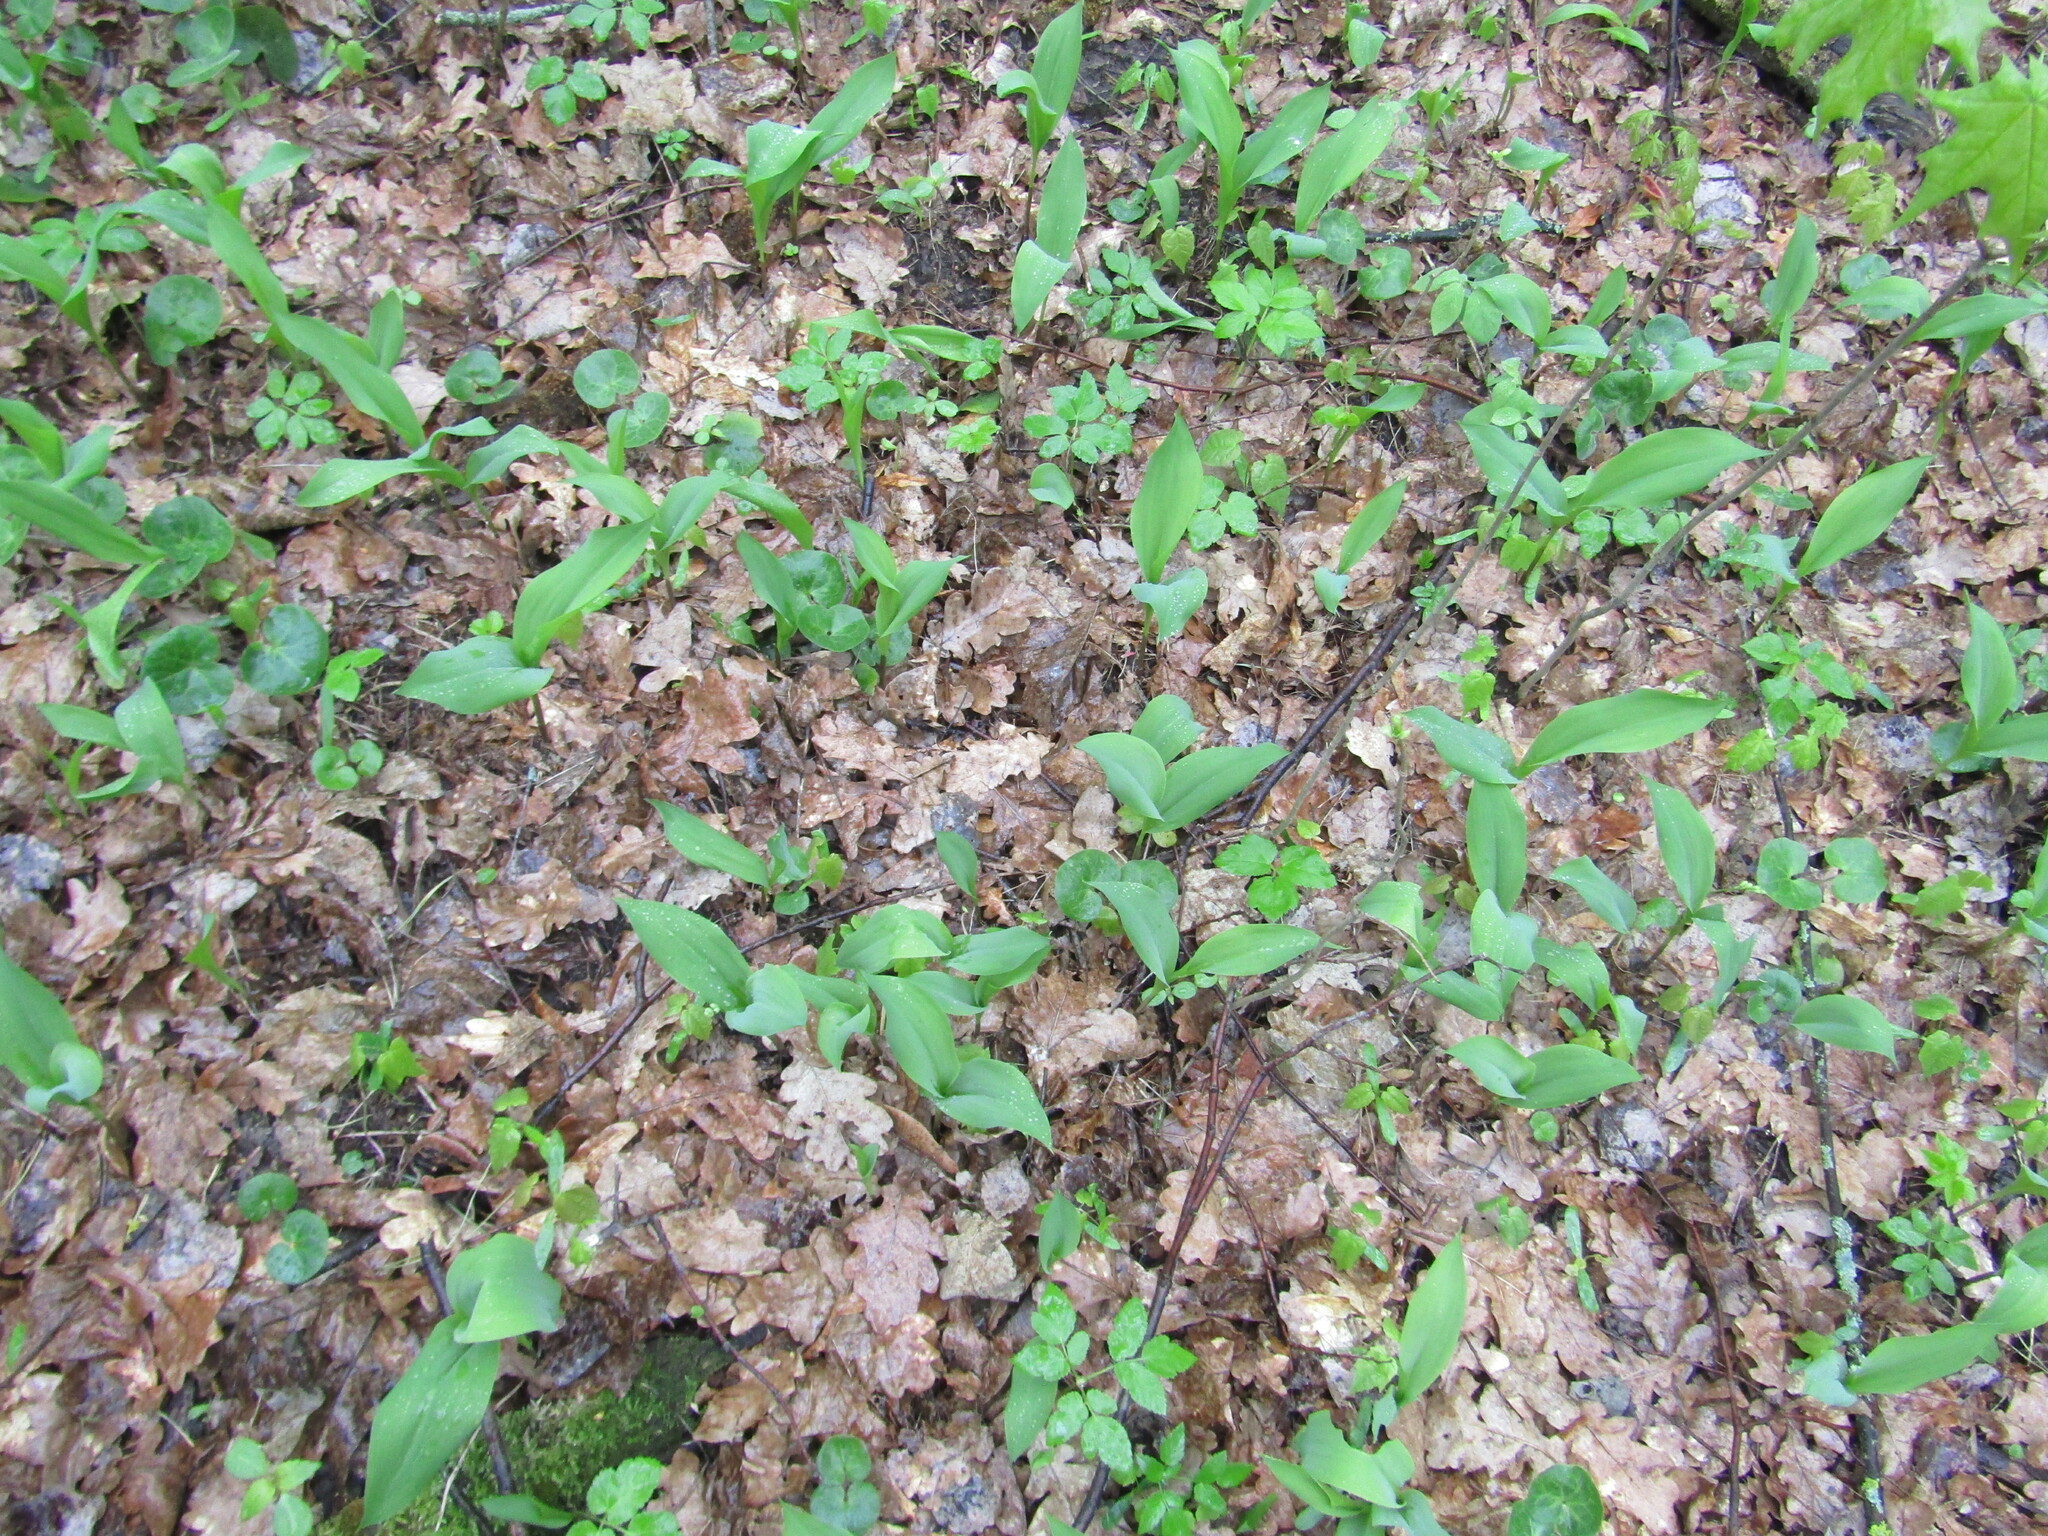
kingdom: Plantae
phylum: Tracheophyta
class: Liliopsida
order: Asparagales
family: Asparagaceae
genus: Convallaria
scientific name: Convallaria majalis
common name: Lily-of-the-valley
